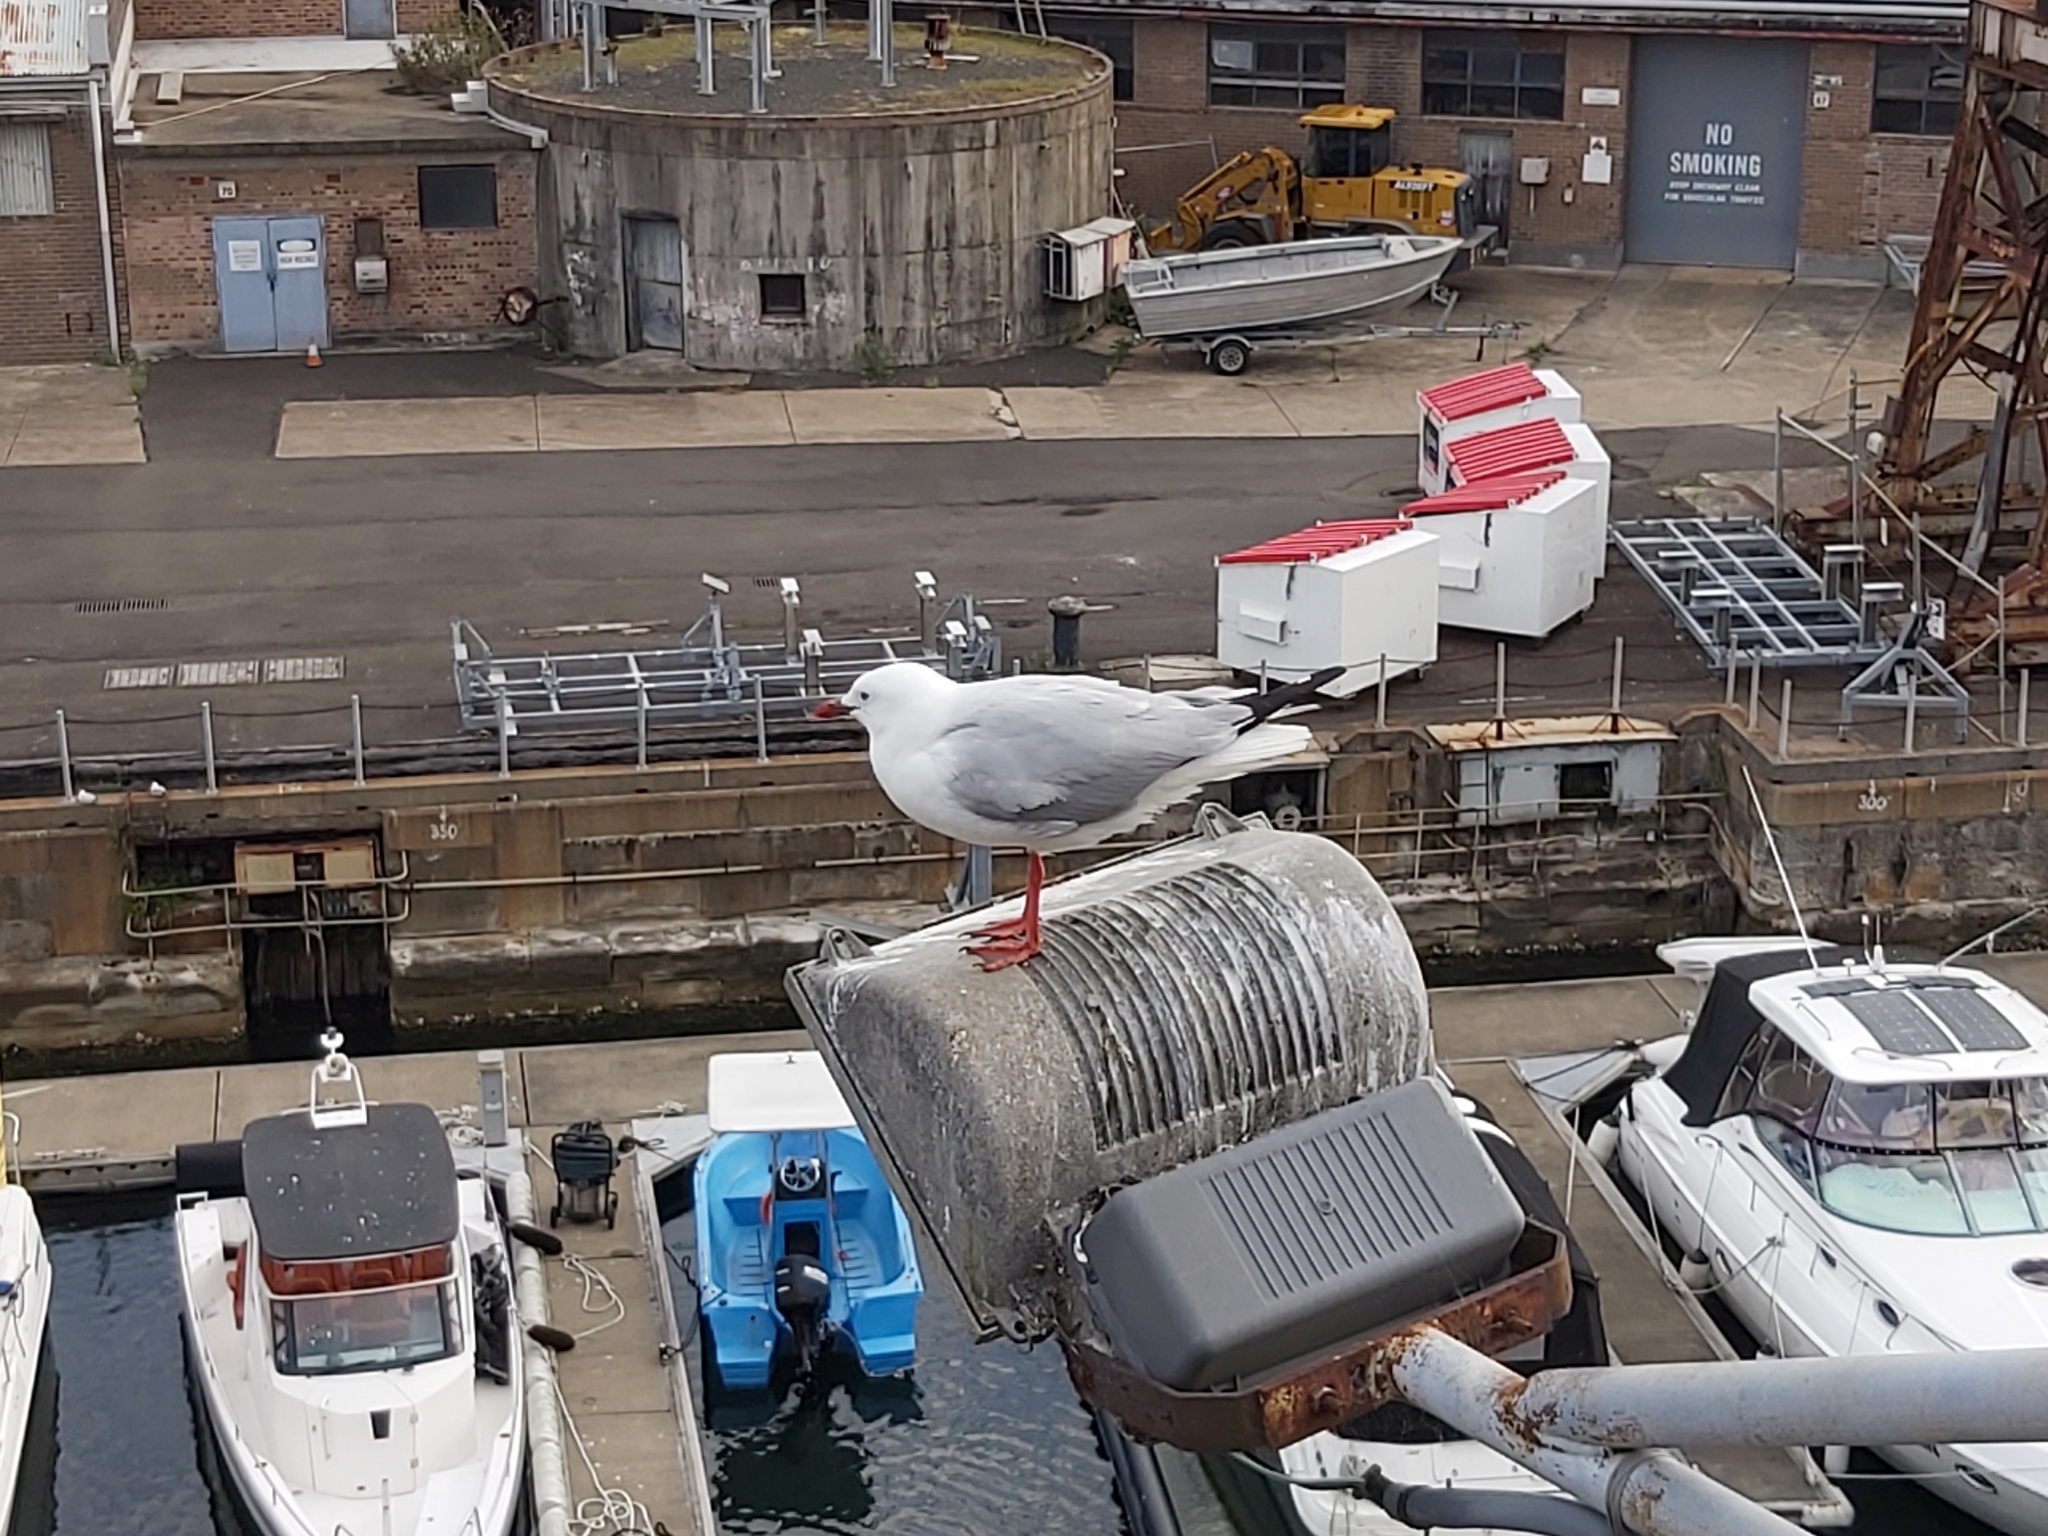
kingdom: Animalia
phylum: Chordata
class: Aves
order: Charadriiformes
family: Laridae
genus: Chroicocephalus
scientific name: Chroicocephalus novaehollandiae
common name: Silver gull
